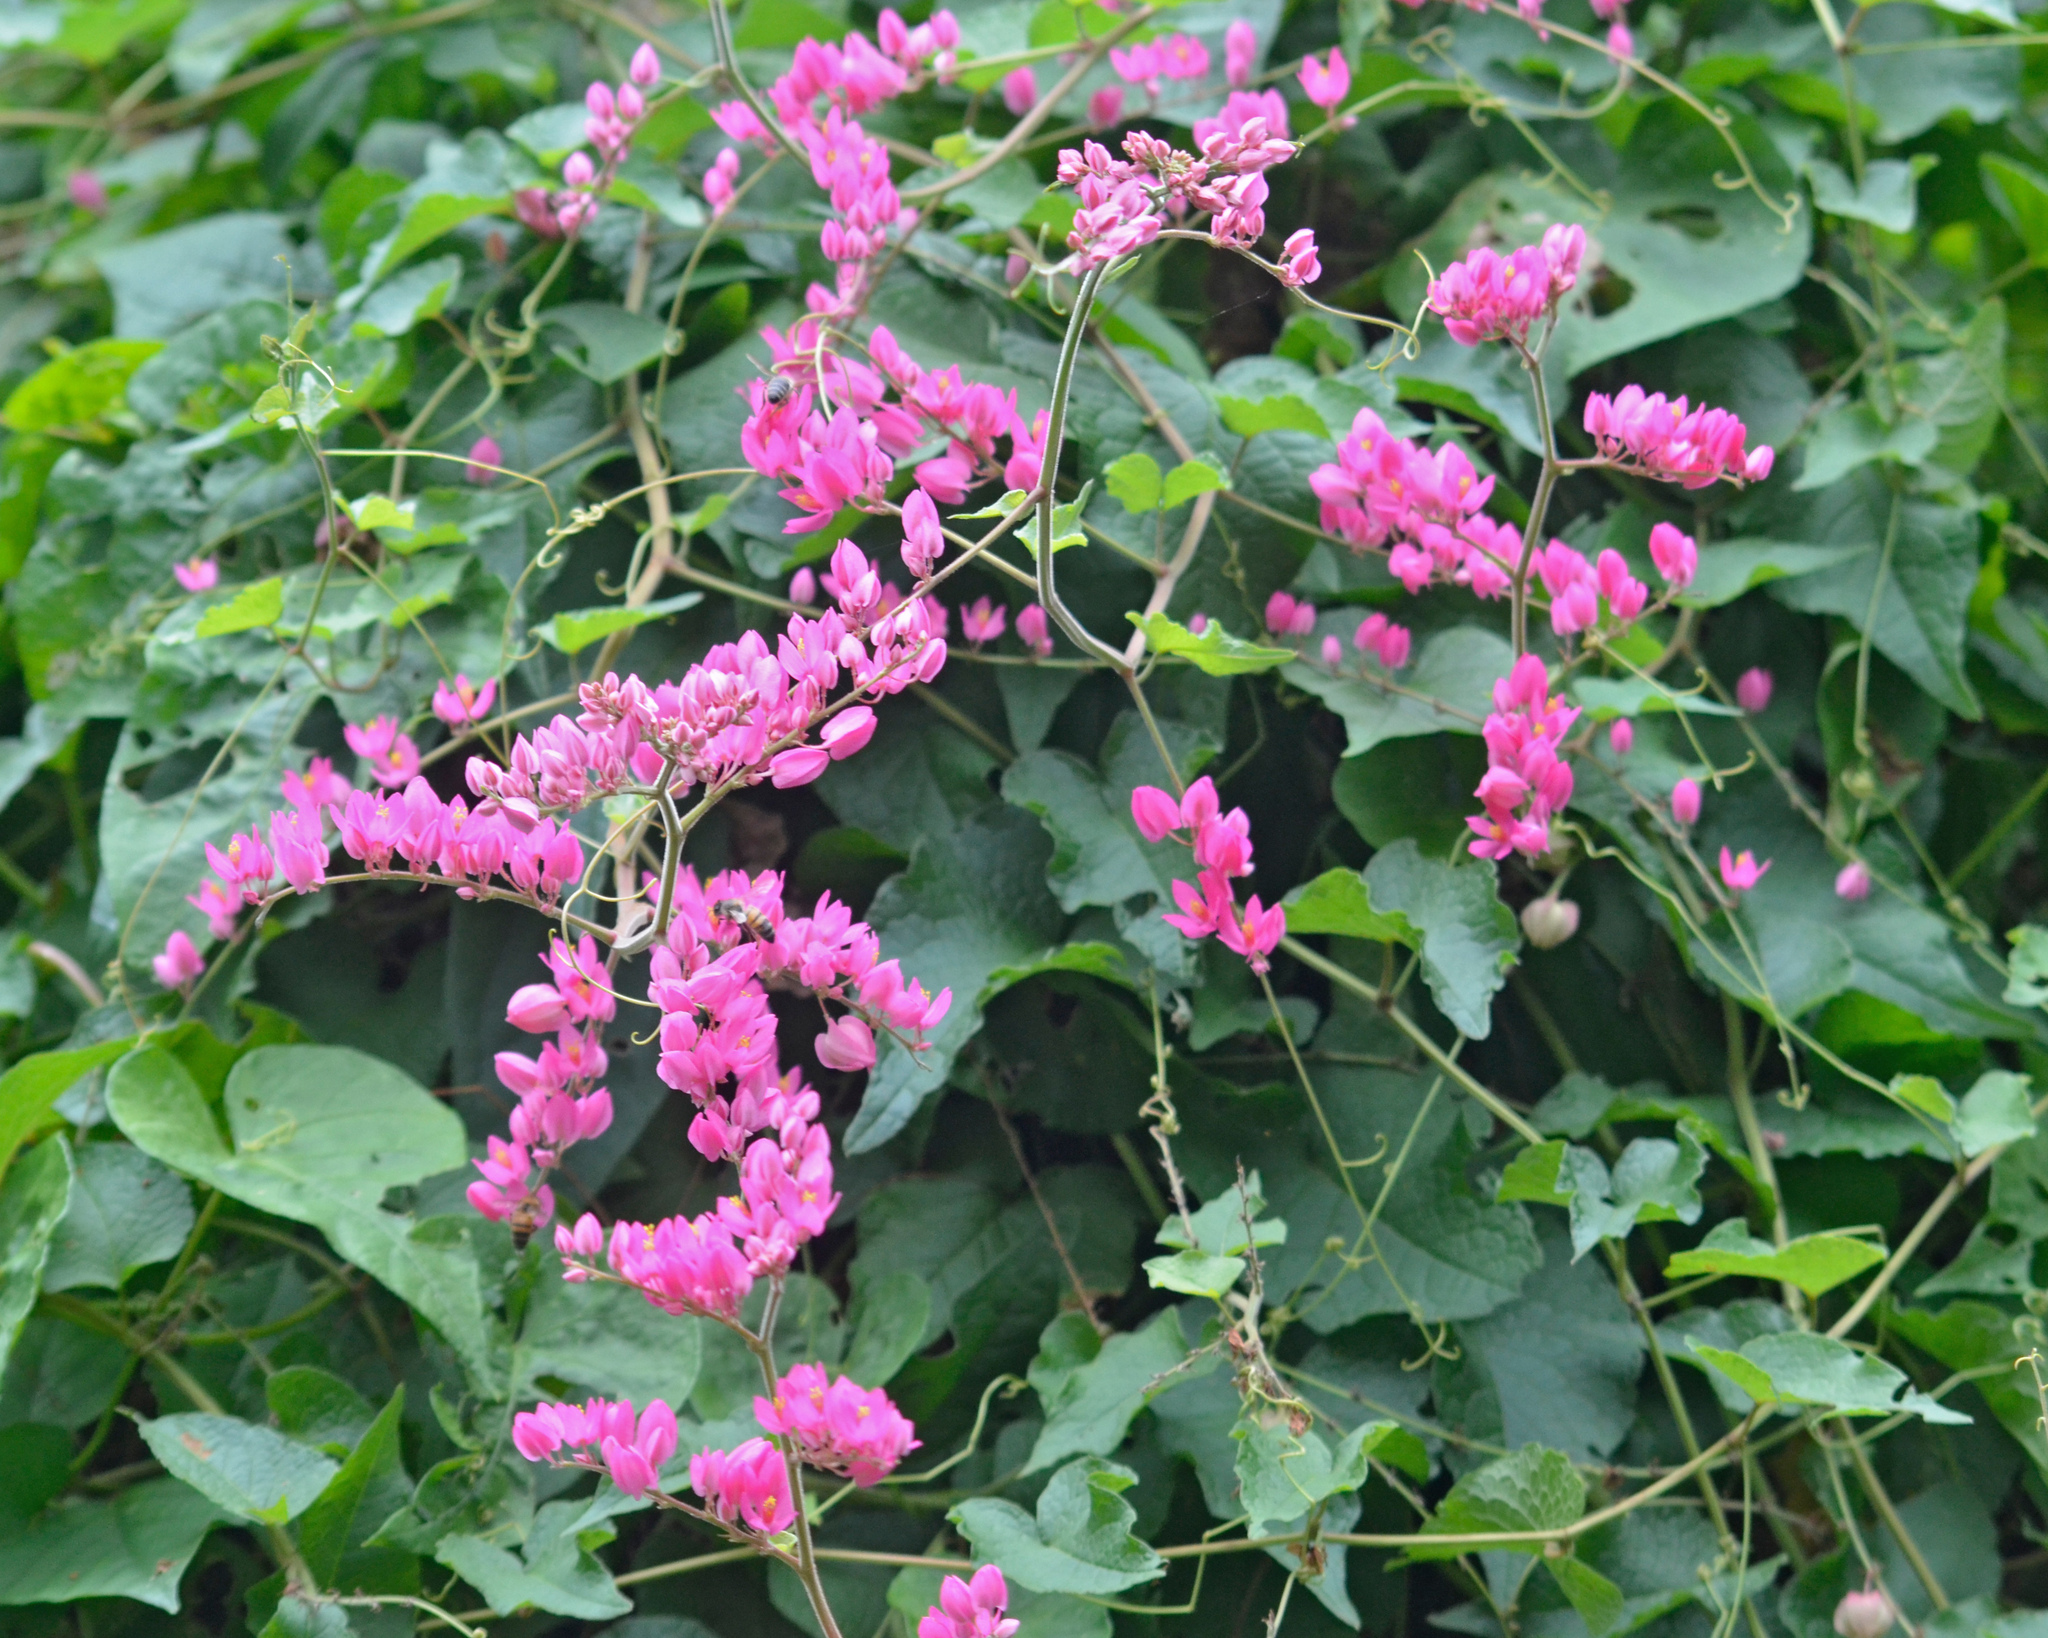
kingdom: Plantae
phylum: Tracheophyta
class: Magnoliopsida
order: Caryophyllales
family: Polygonaceae
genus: Antigonon
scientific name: Antigonon leptopus
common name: Coral vine
